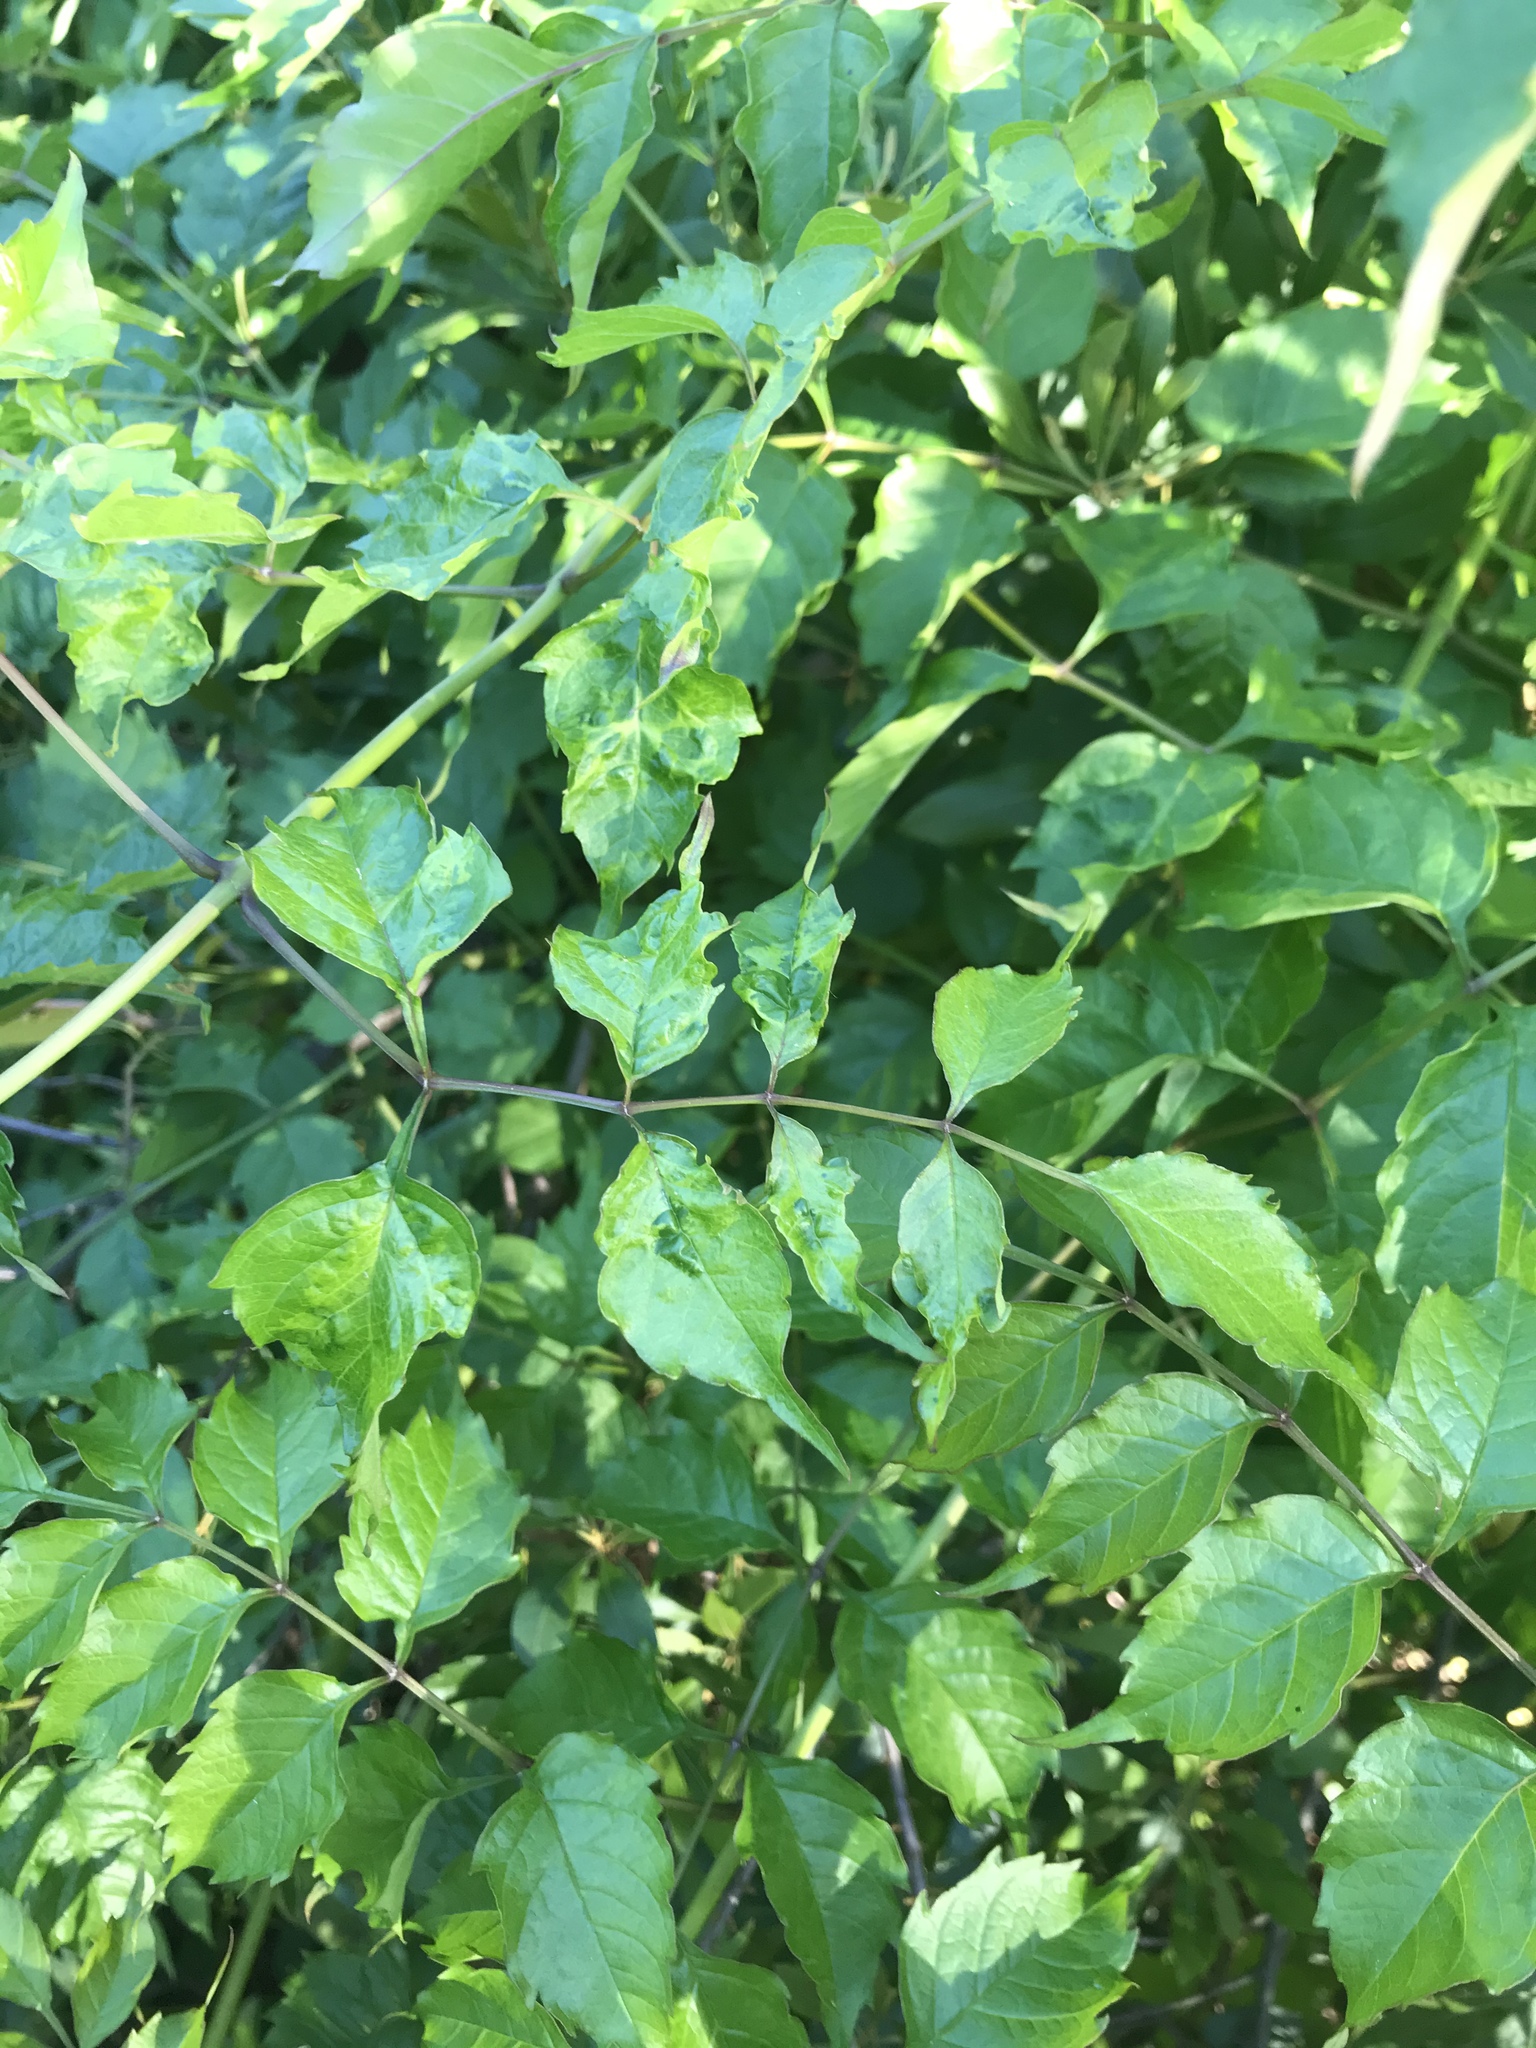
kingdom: Plantae
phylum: Tracheophyta
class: Magnoliopsida
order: Lamiales
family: Bignoniaceae
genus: Campsis
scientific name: Campsis radicans
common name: Trumpet-creeper
